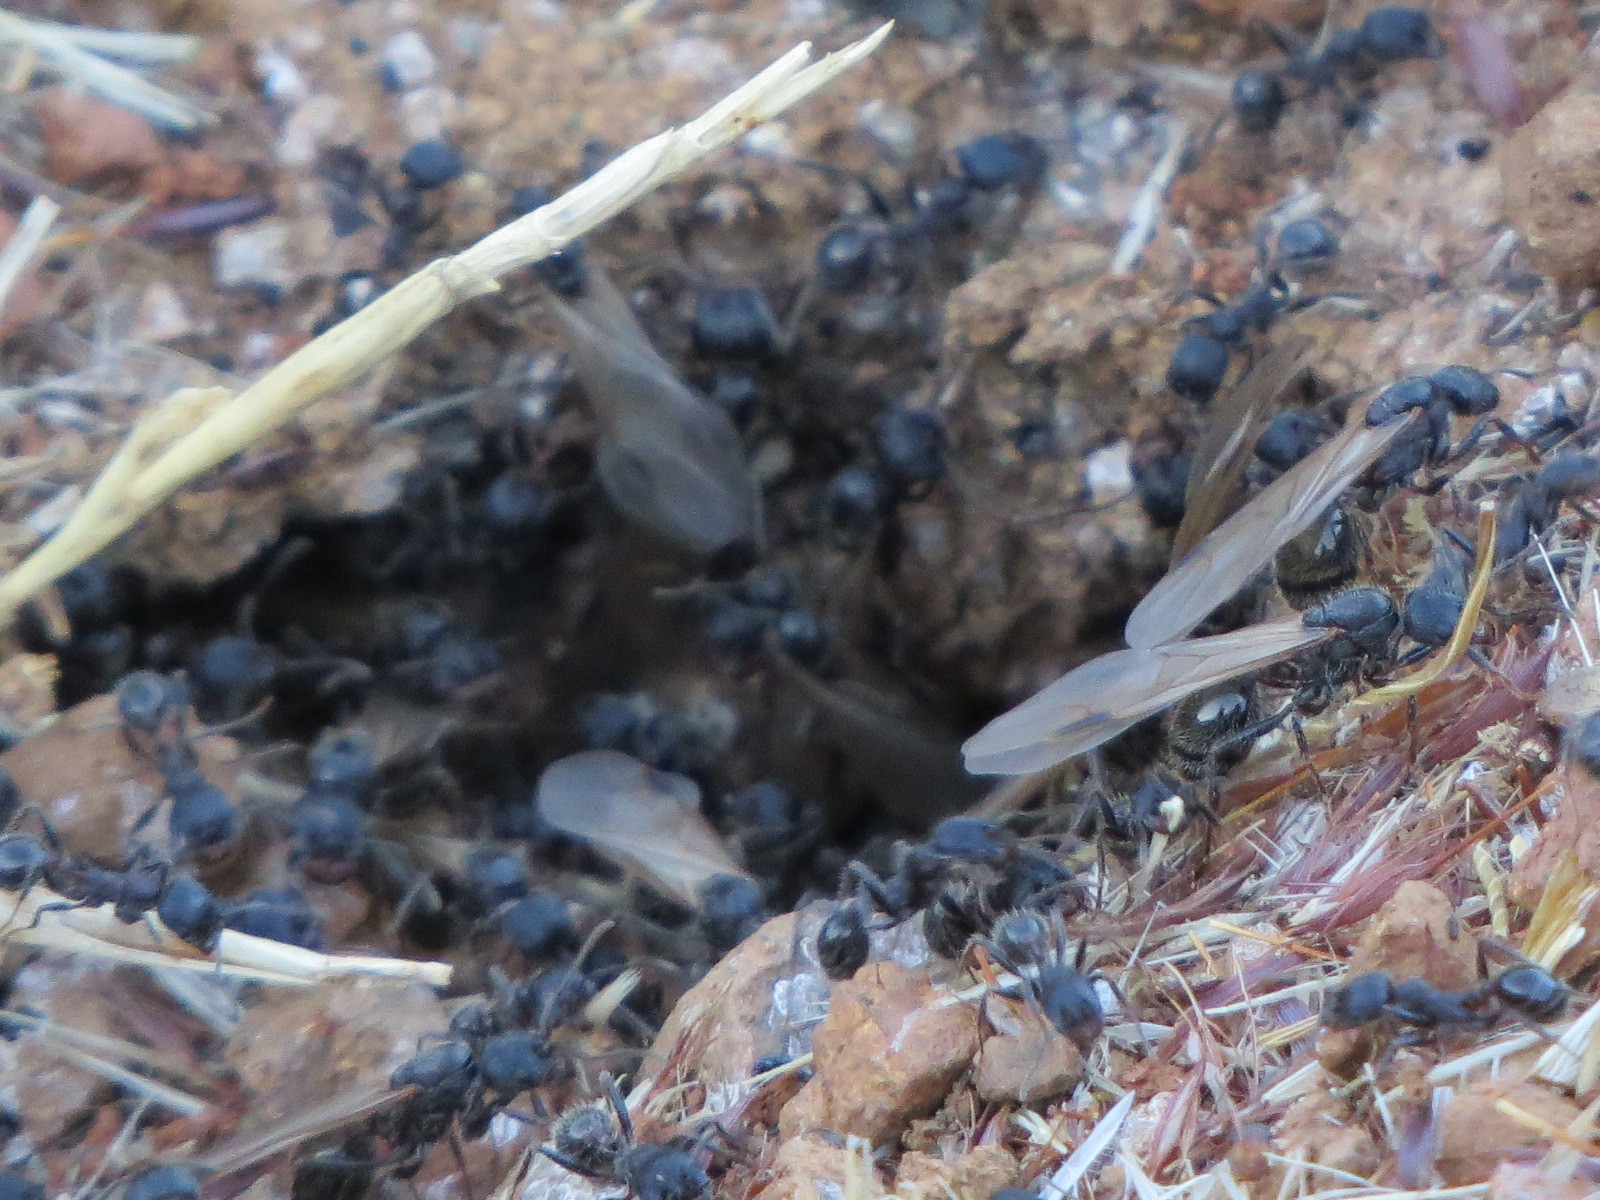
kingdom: Animalia
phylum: Arthropoda
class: Insecta
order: Hymenoptera
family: Formicidae
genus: Veromessor
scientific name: Veromessor andrei
